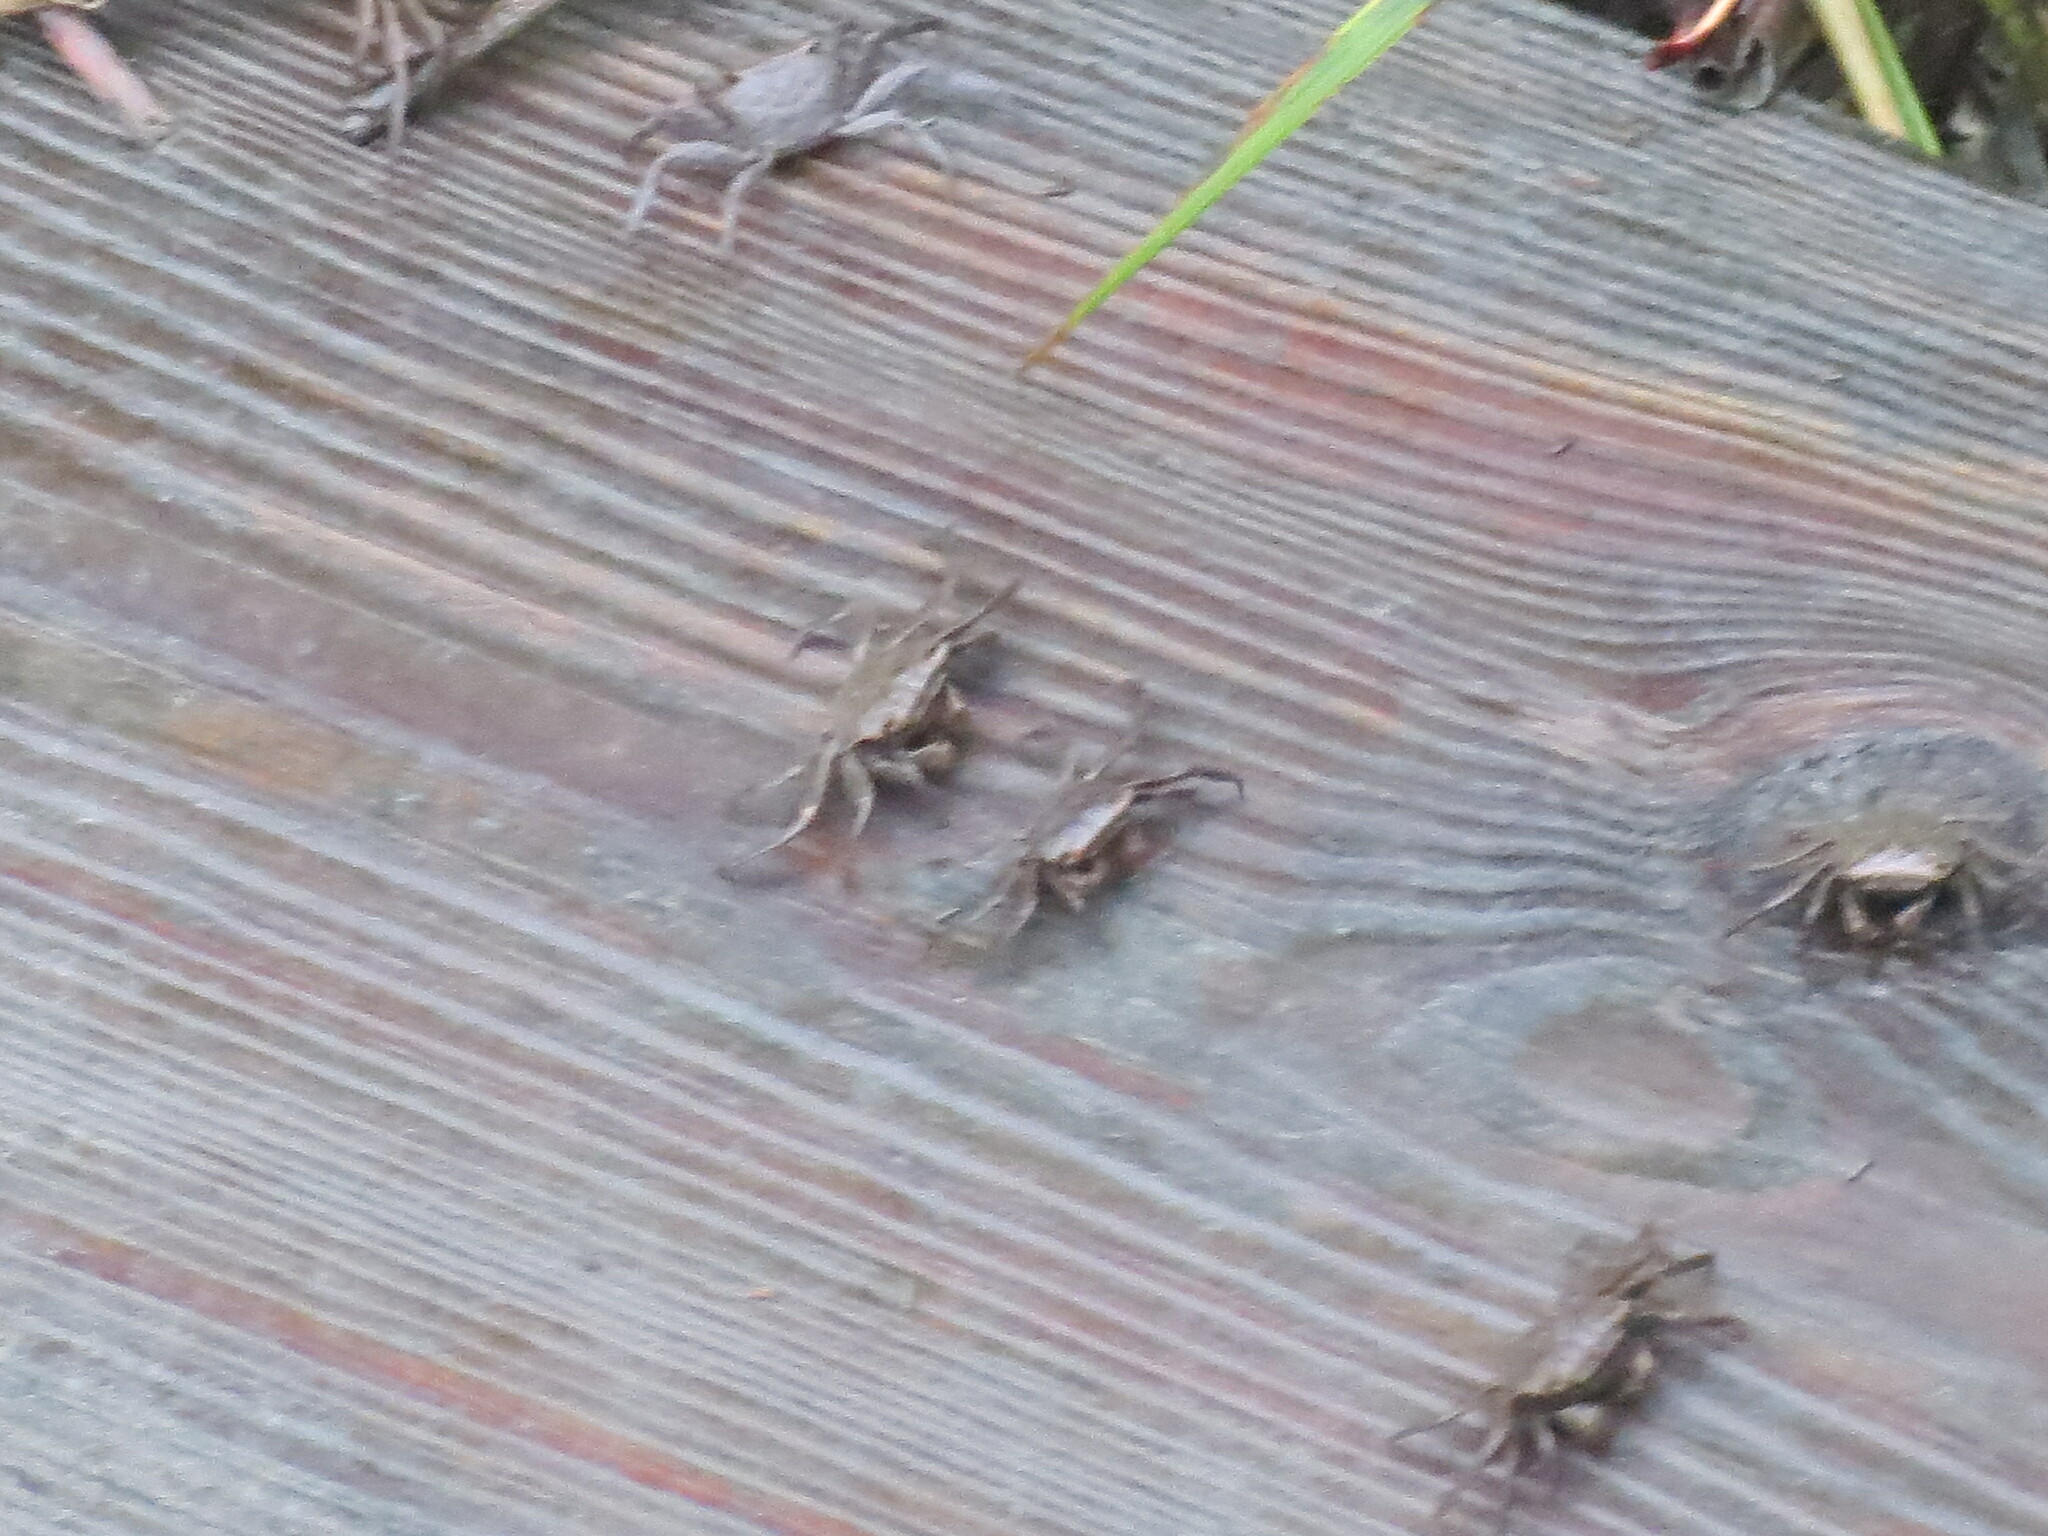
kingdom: Animalia
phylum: Arthropoda
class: Malacostraca
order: Decapoda
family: Sesarmidae
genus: Armases
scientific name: Armases cinereum
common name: Squareback marsh crab
